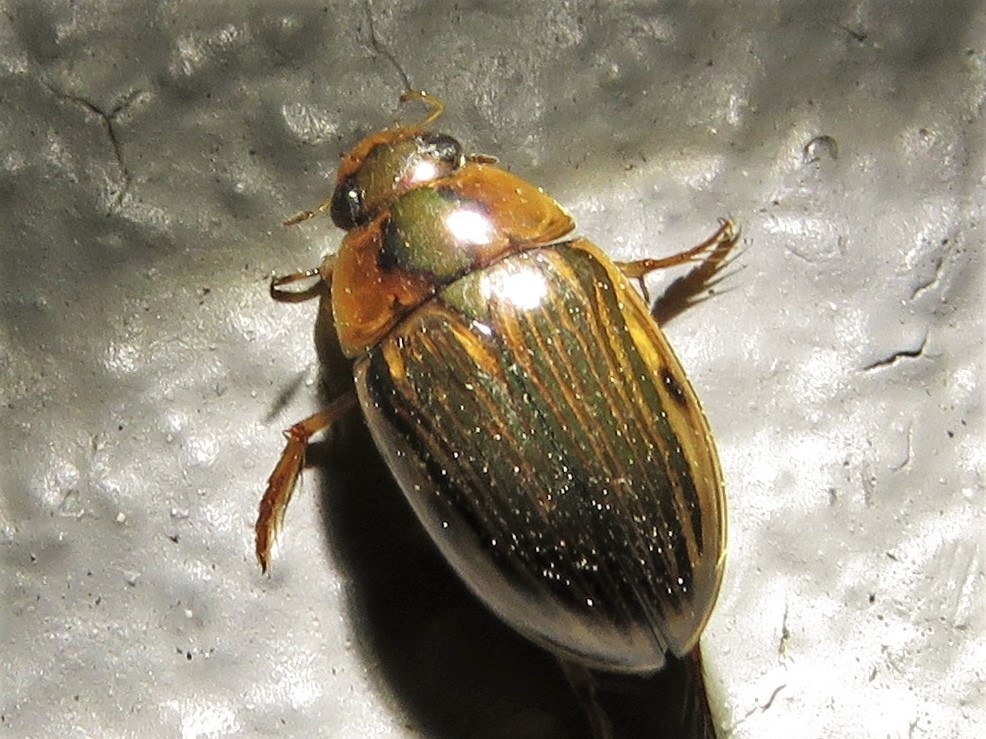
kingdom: Animalia
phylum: Arthropoda
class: Insecta
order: Coleoptera
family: Hydrophilidae
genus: Tropisternus
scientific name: Tropisternus collaris
